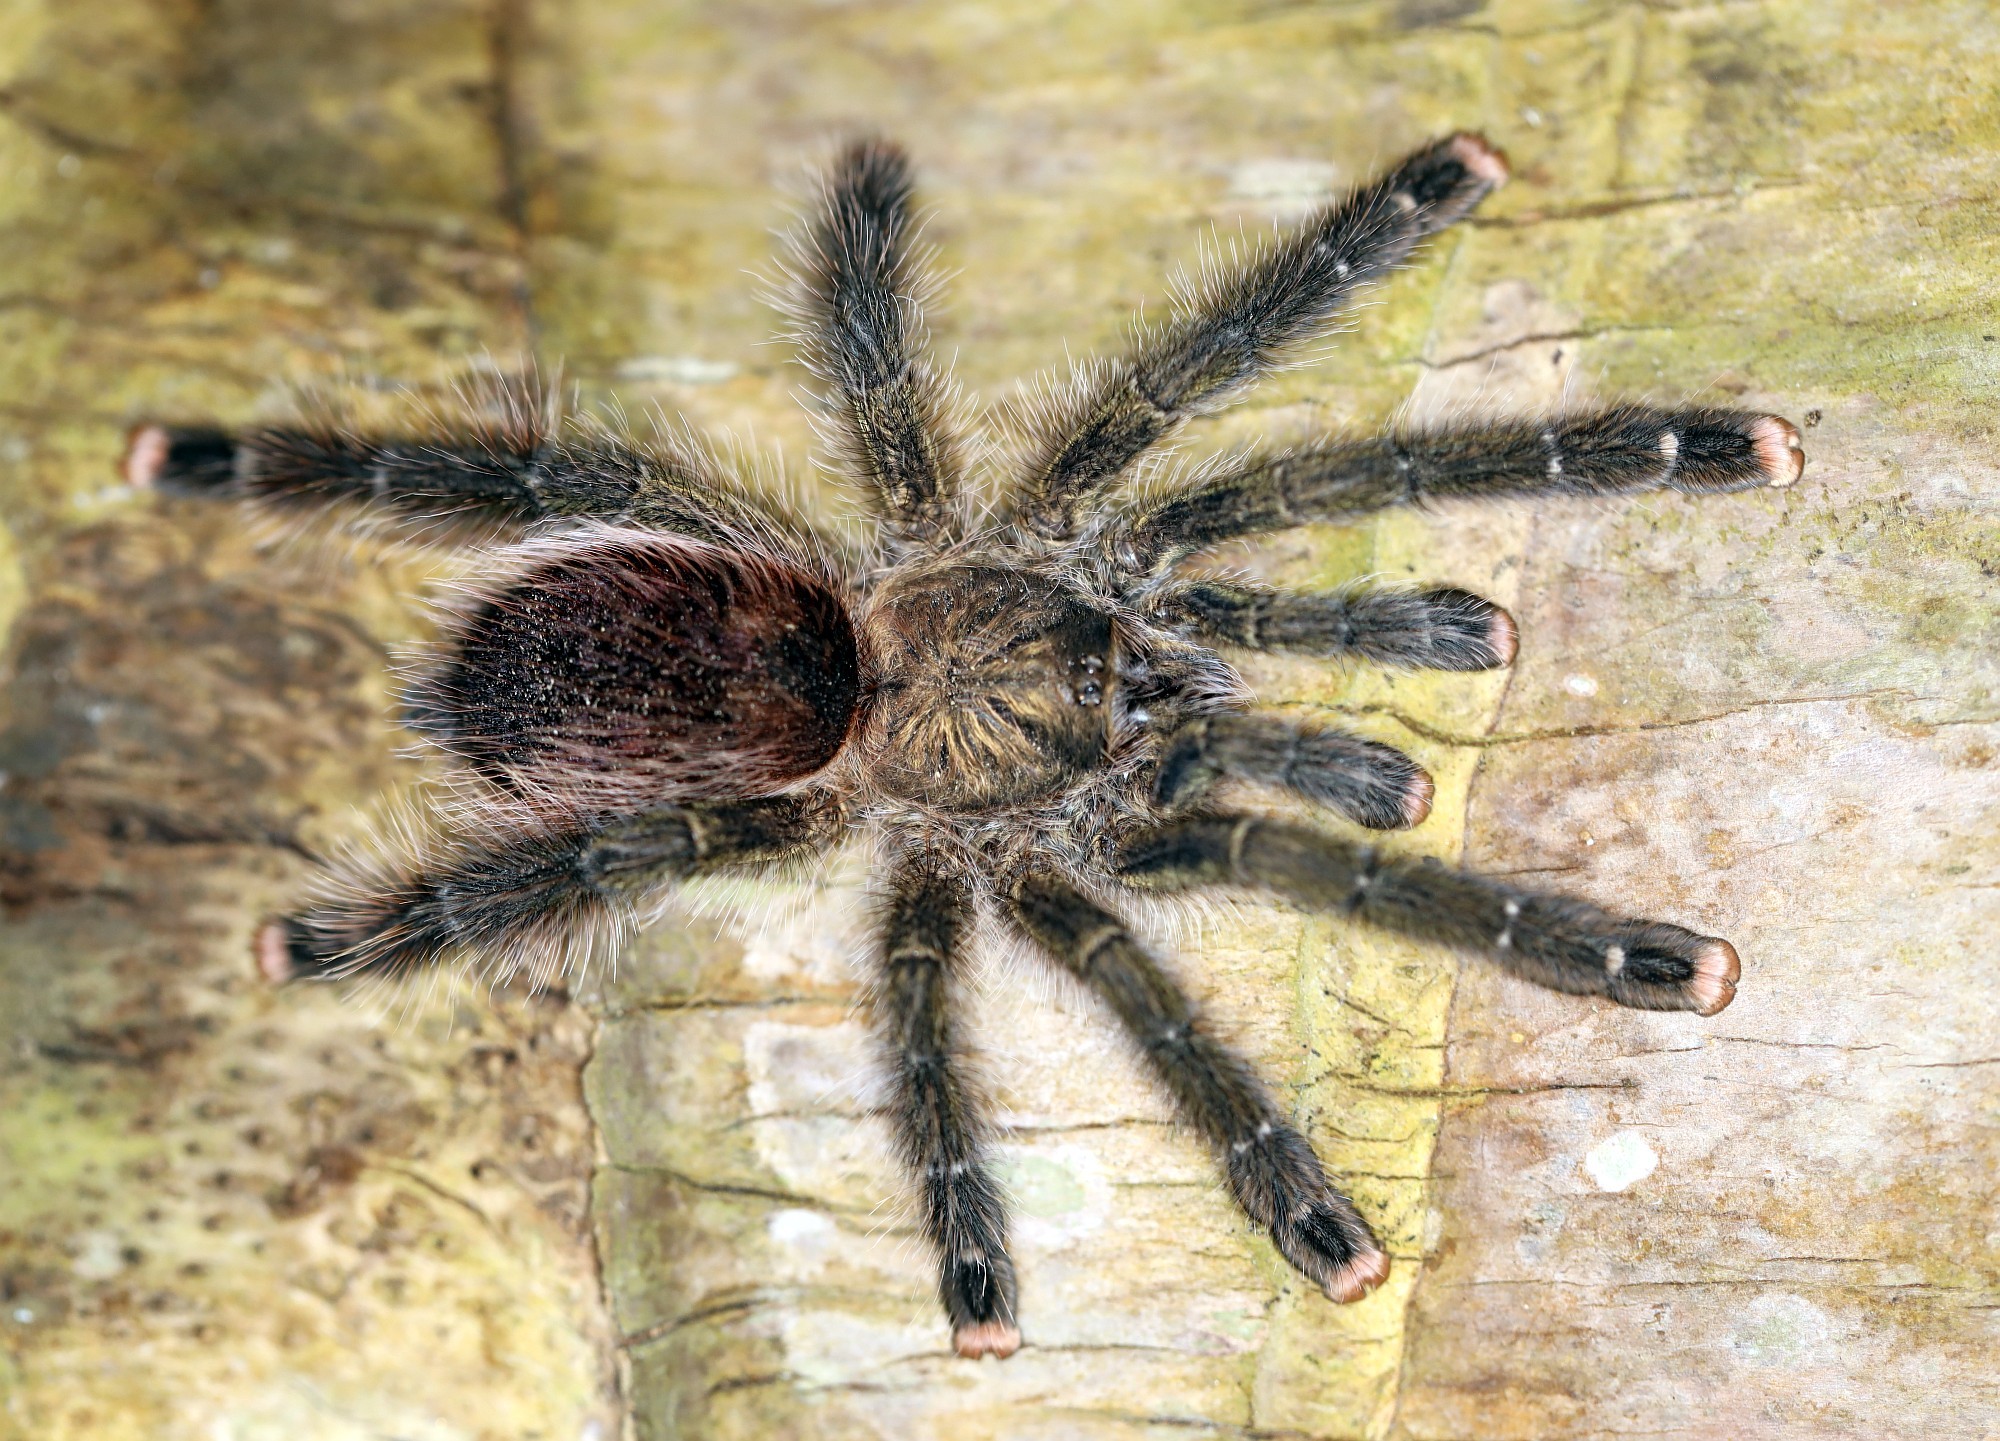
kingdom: Animalia
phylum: Arthropoda
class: Arachnida
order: Araneae
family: Theraphosidae
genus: Avicularia
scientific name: Avicularia juruensis
